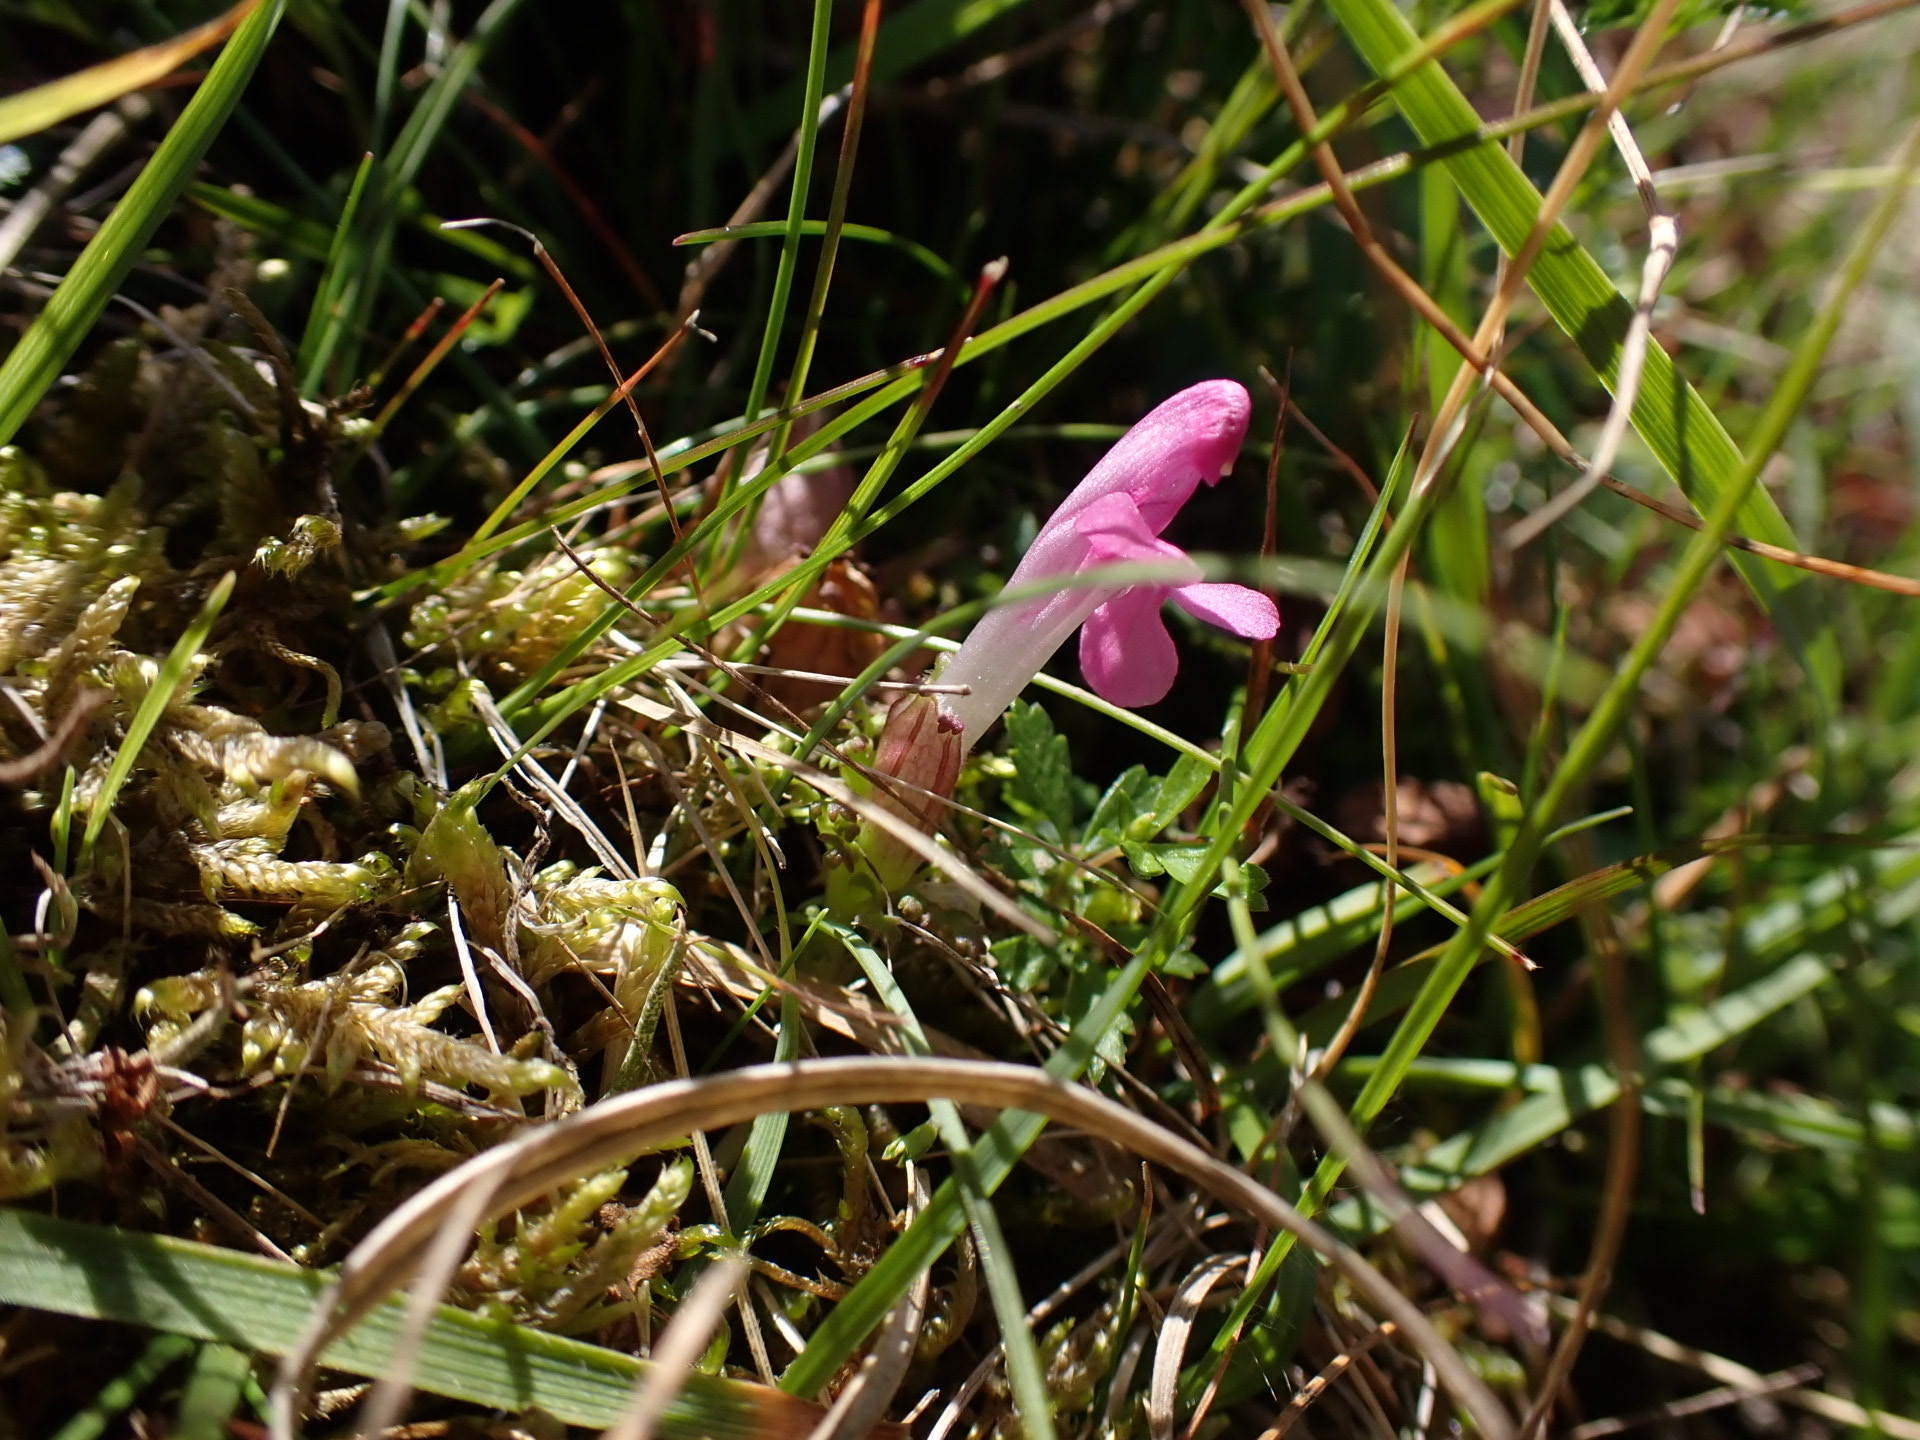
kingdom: Plantae
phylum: Tracheophyta
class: Magnoliopsida
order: Lamiales
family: Orobanchaceae
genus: Pedicularis
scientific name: Pedicularis sylvatica
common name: Lousewort
